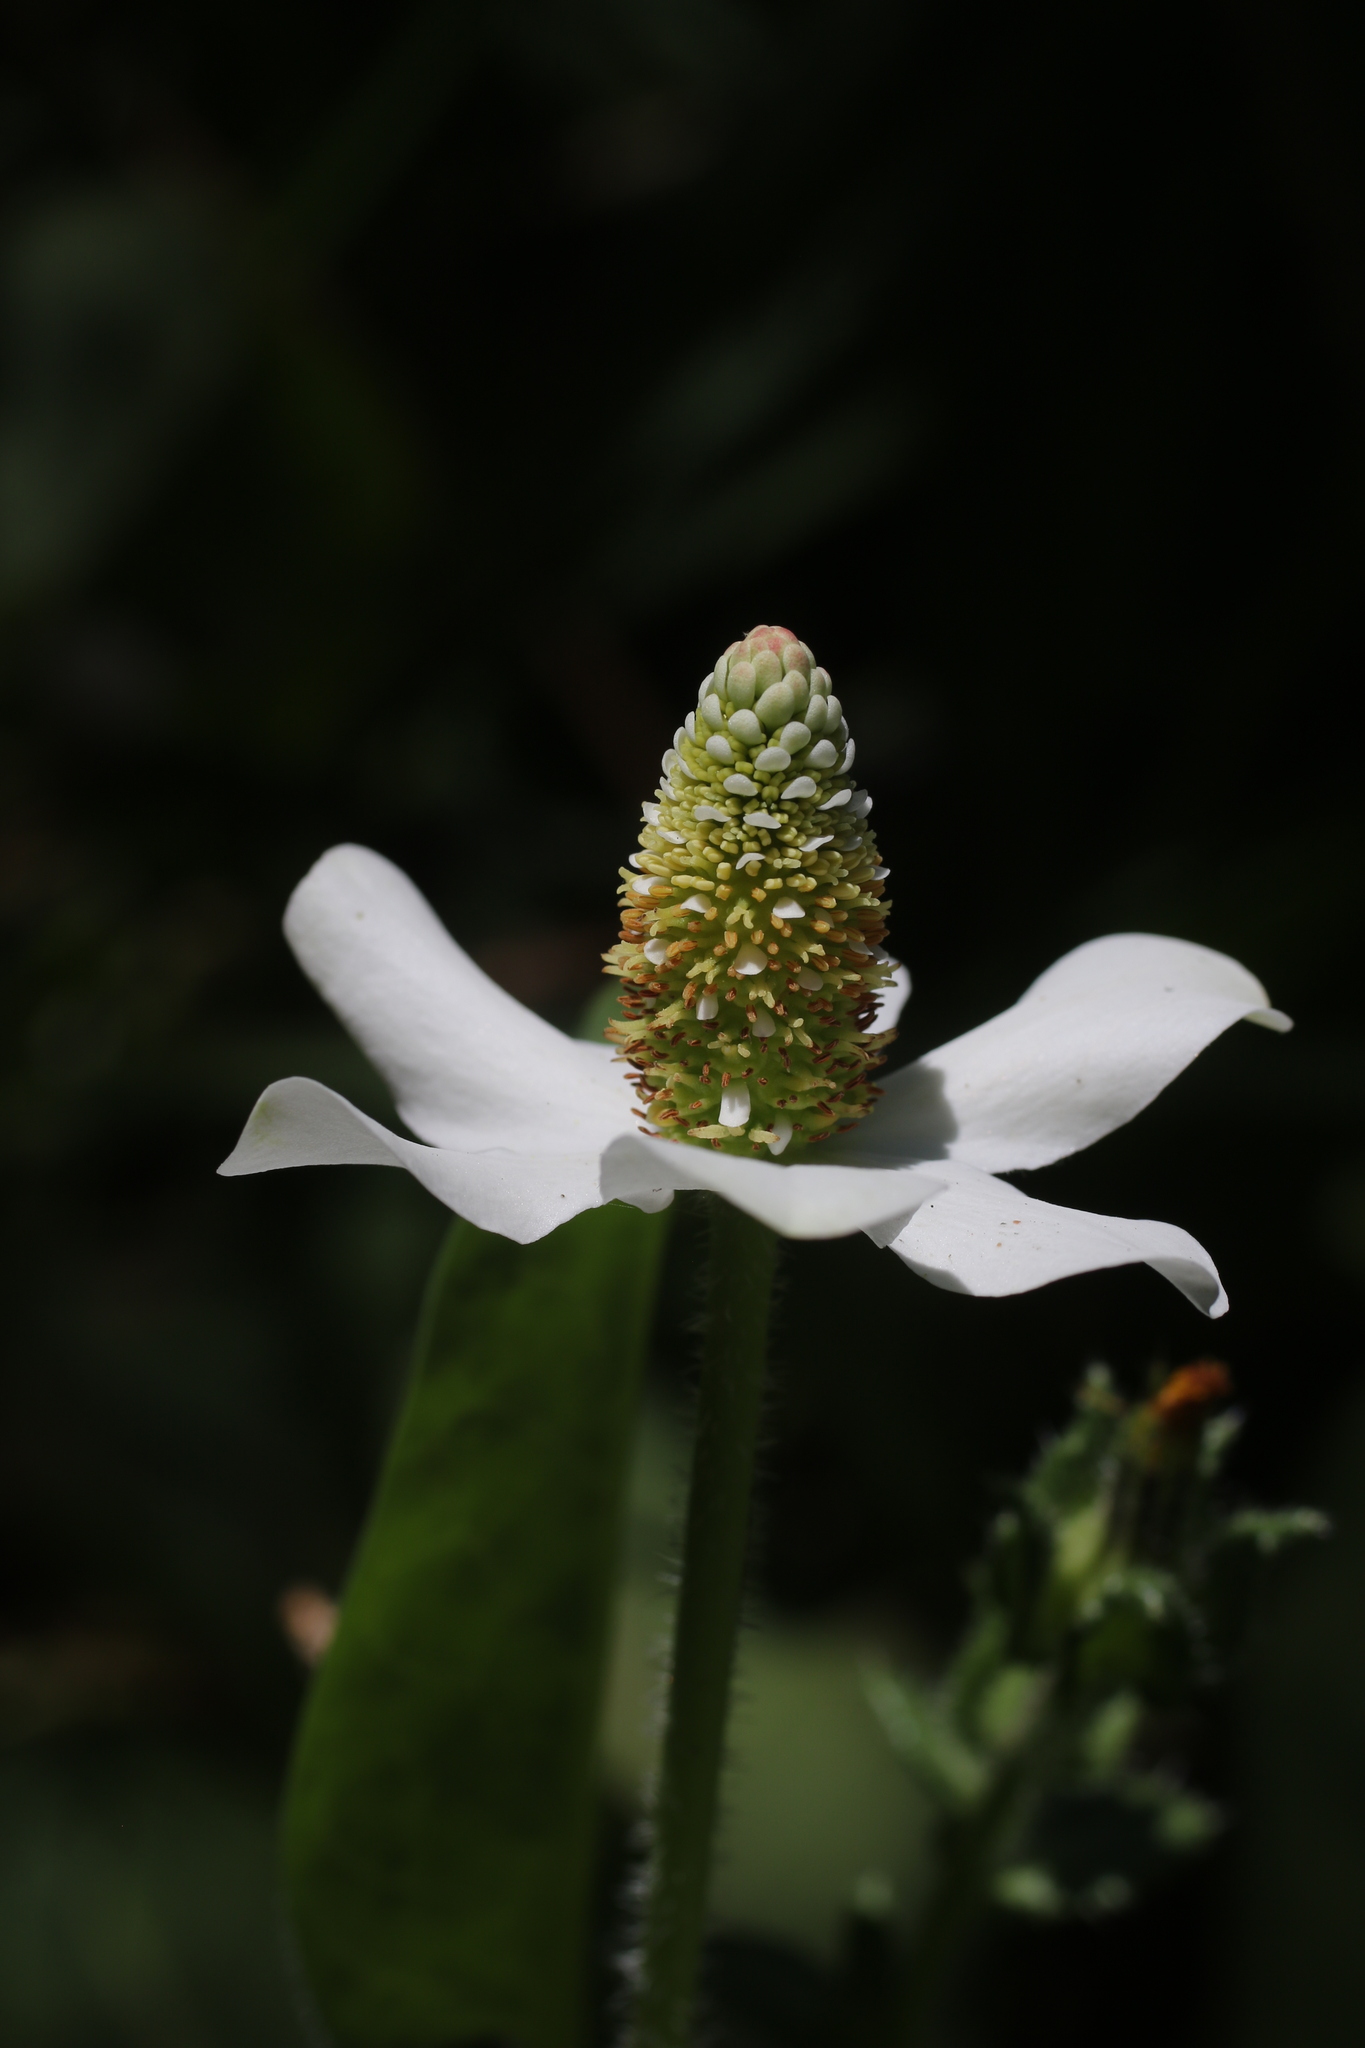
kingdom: Plantae
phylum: Tracheophyta
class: Magnoliopsida
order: Piperales
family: Saururaceae
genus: Anemopsis
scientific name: Anemopsis californica
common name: Apache-beads
